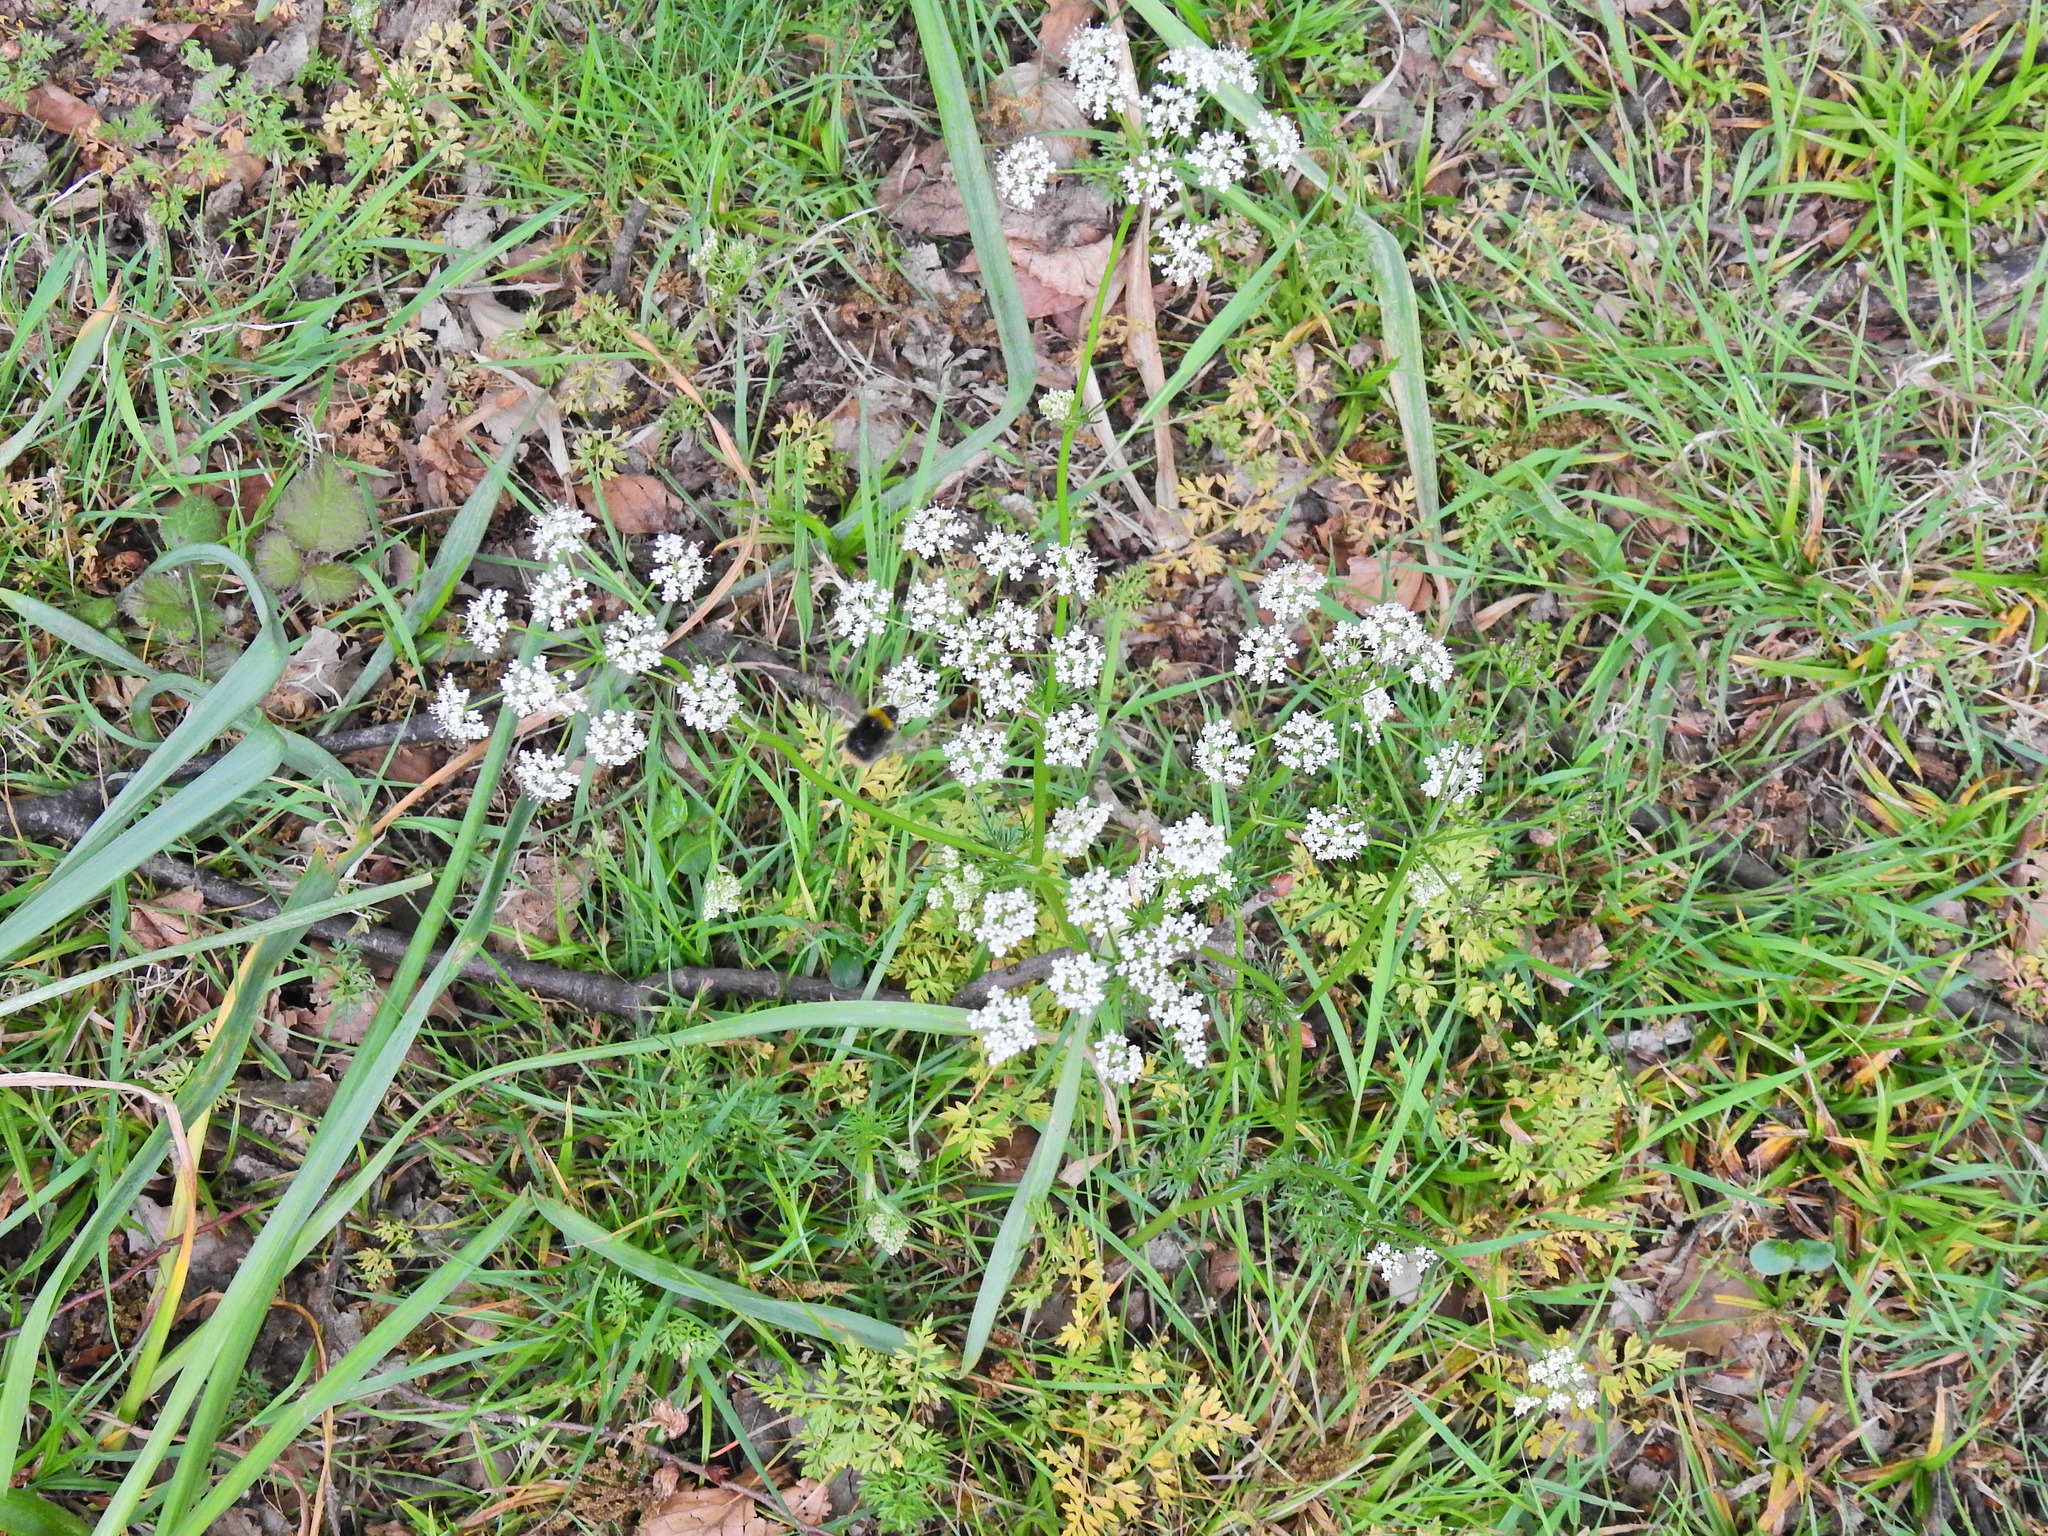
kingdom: Plantae
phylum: Tracheophyta
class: Magnoliopsida
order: Apiales
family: Apiaceae
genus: Conopodium
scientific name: Conopodium majus
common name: Pignut
